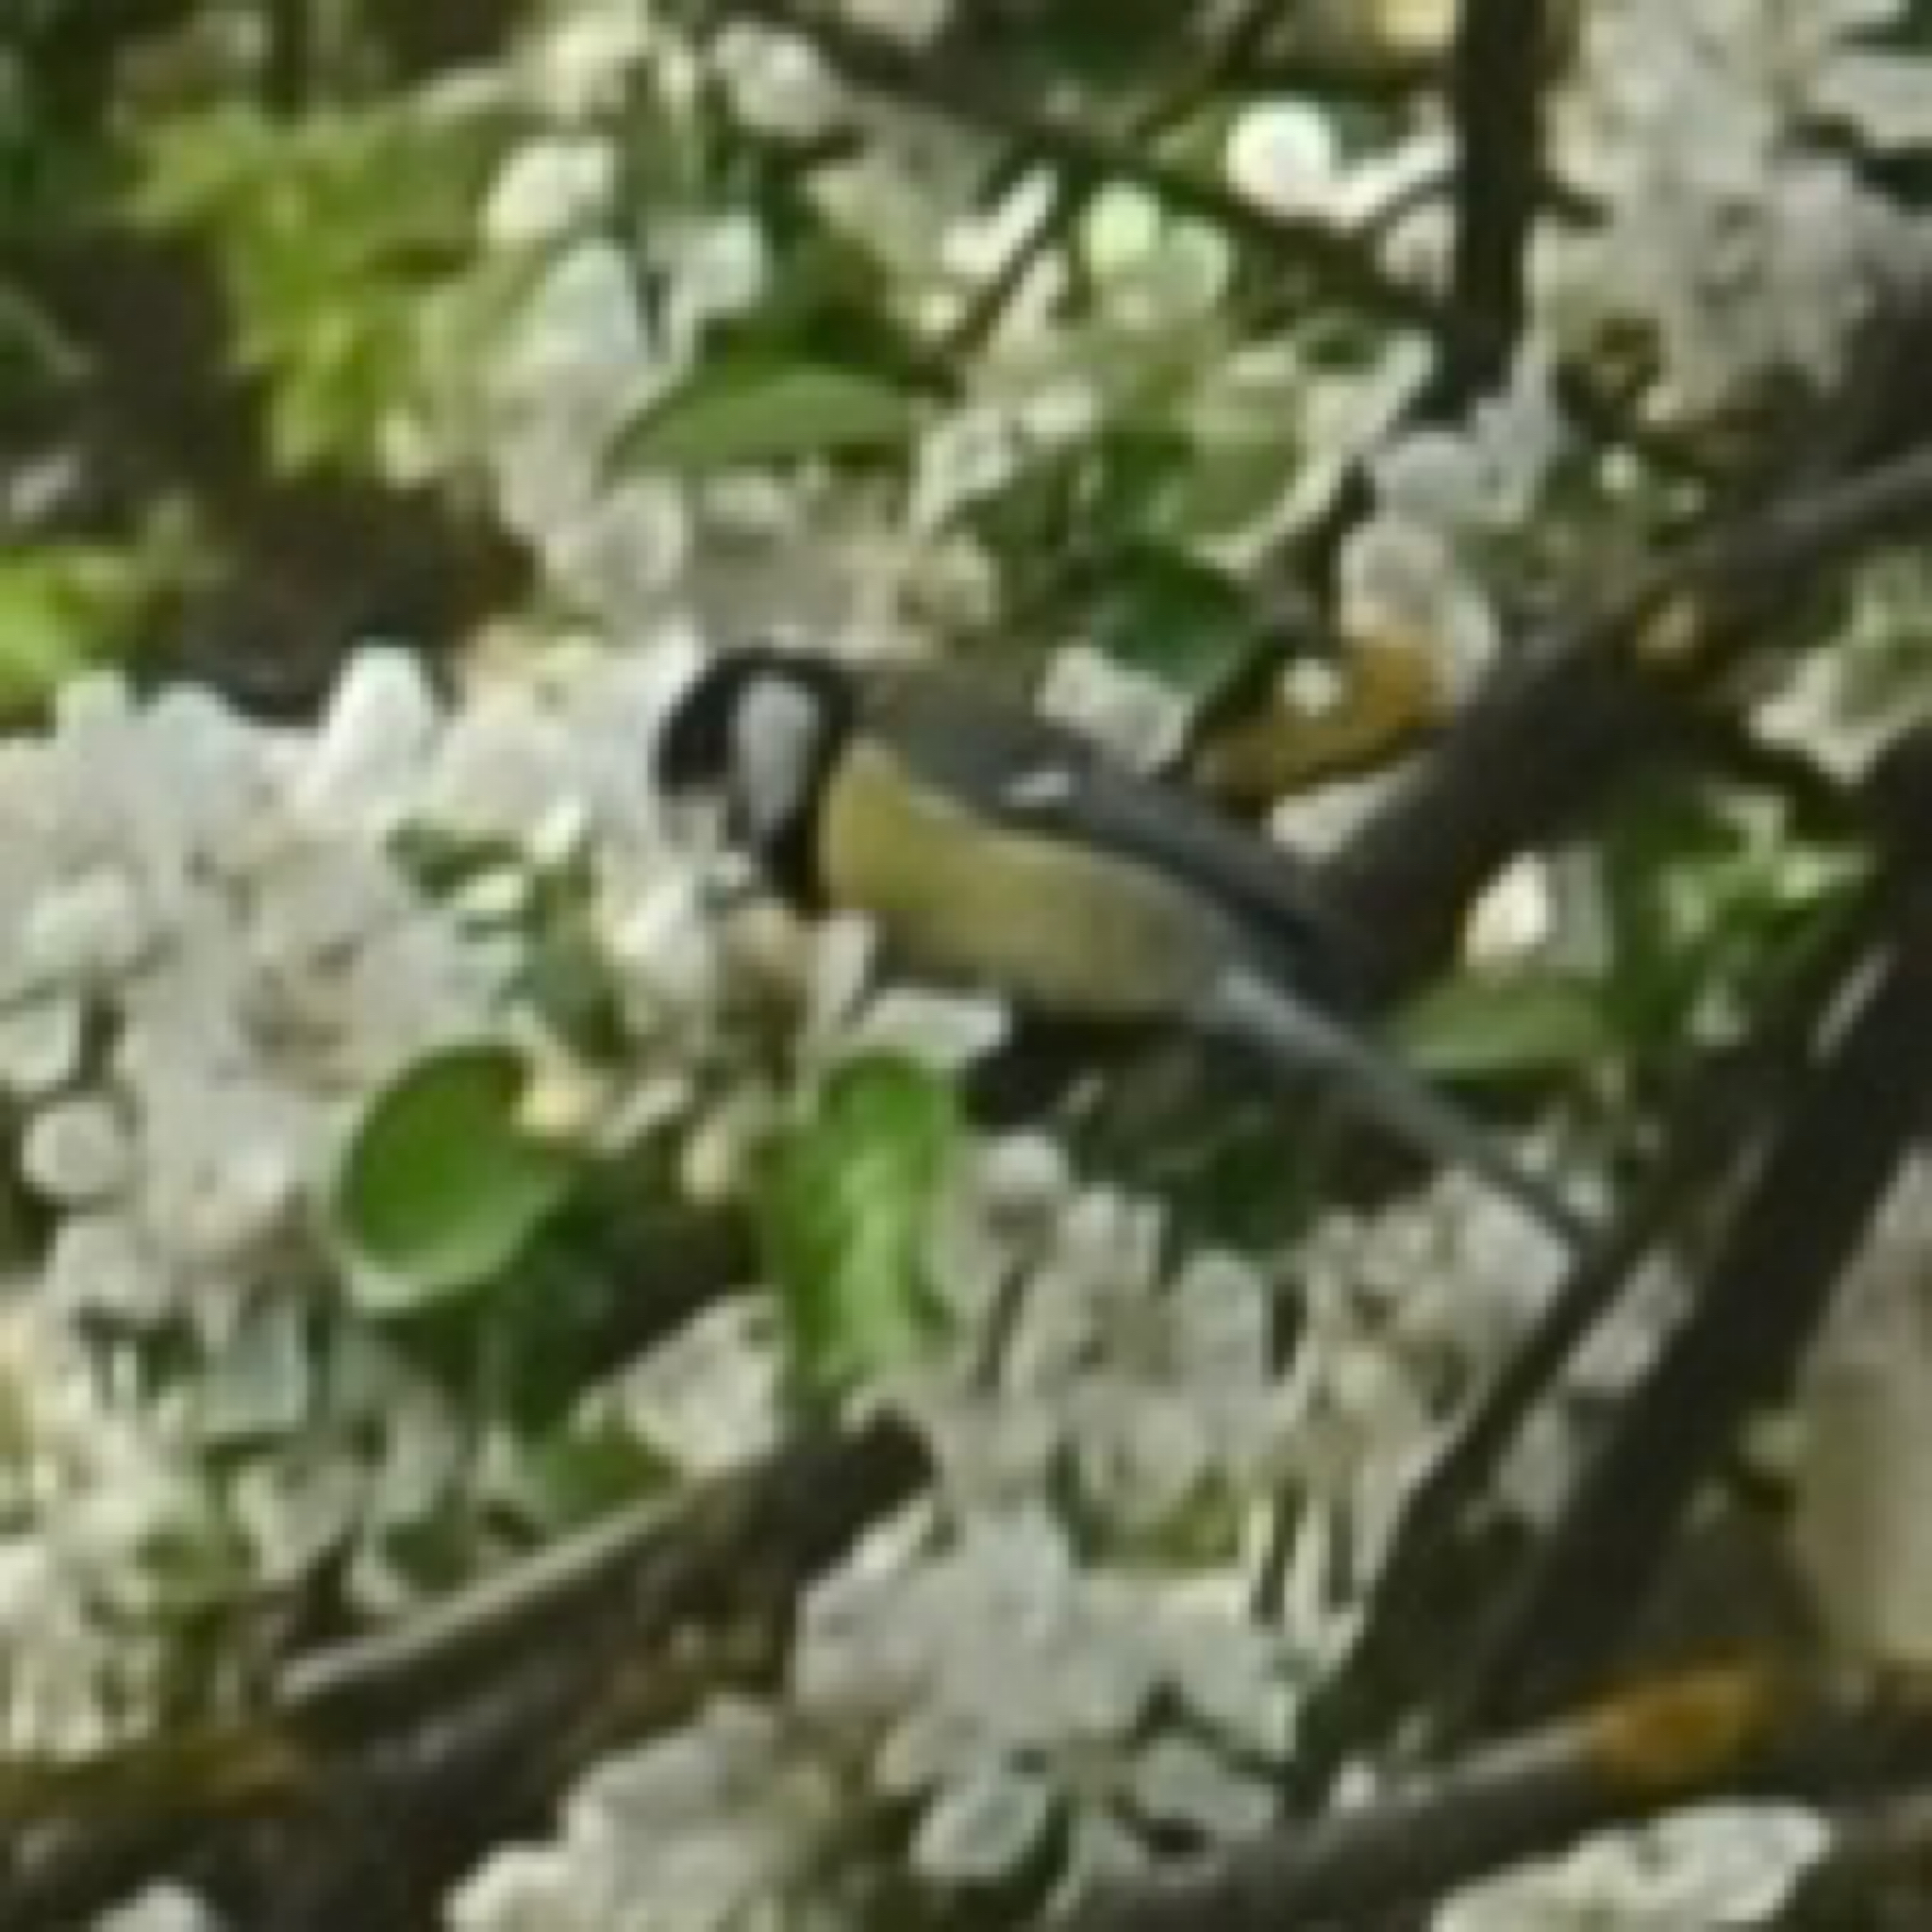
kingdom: Animalia
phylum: Chordata
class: Aves
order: Passeriformes
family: Paridae
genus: Parus
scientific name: Parus major
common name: Great tit
